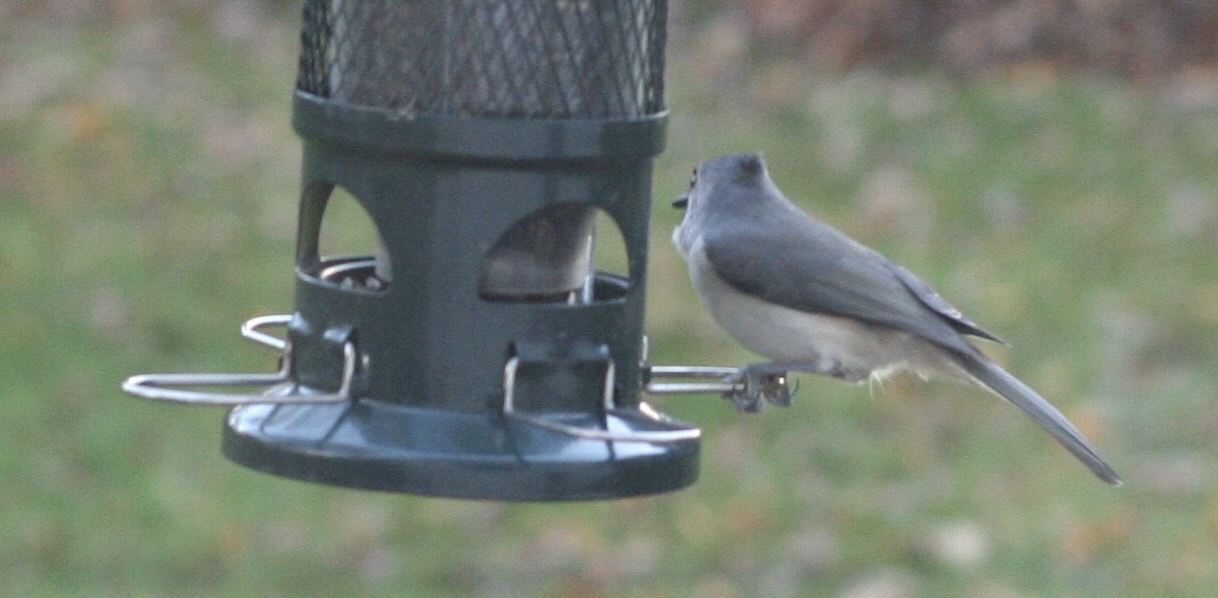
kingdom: Animalia
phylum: Chordata
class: Aves
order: Passeriformes
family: Paridae
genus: Baeolophus
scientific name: Baeolophus bicolor
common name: Tufted titmouse
